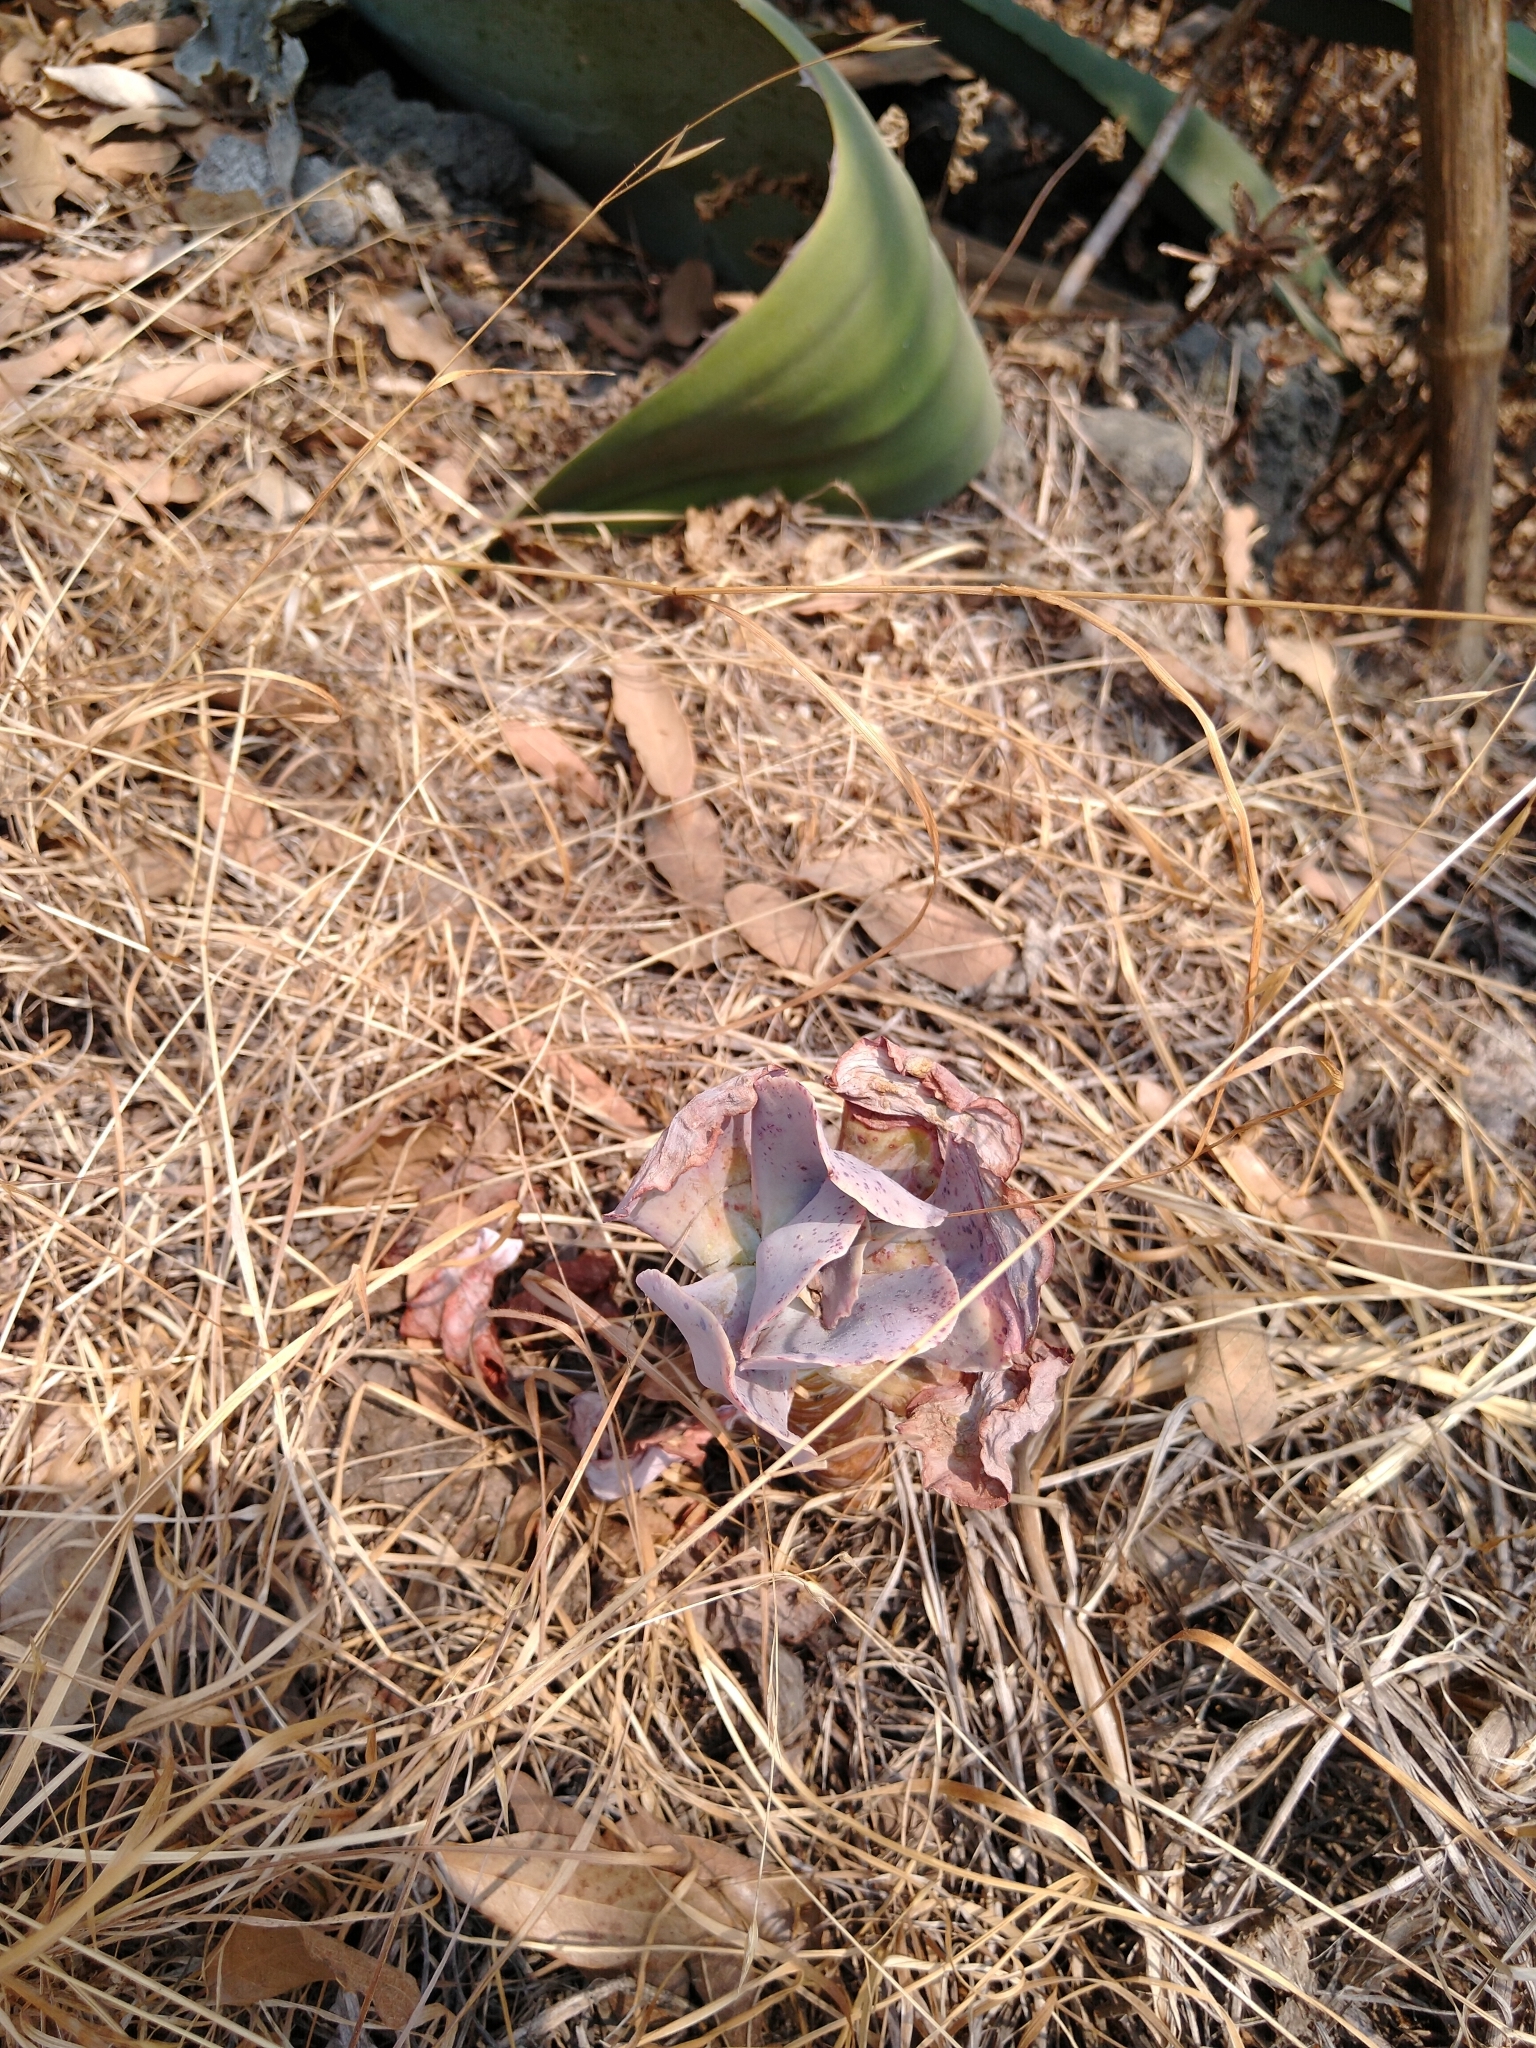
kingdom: Plantae
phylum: Tracheophyta
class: Magnoliopsida
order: Saxifragales
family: Crassulaceae
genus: Echeveria
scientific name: Echeveria gibbiflora
